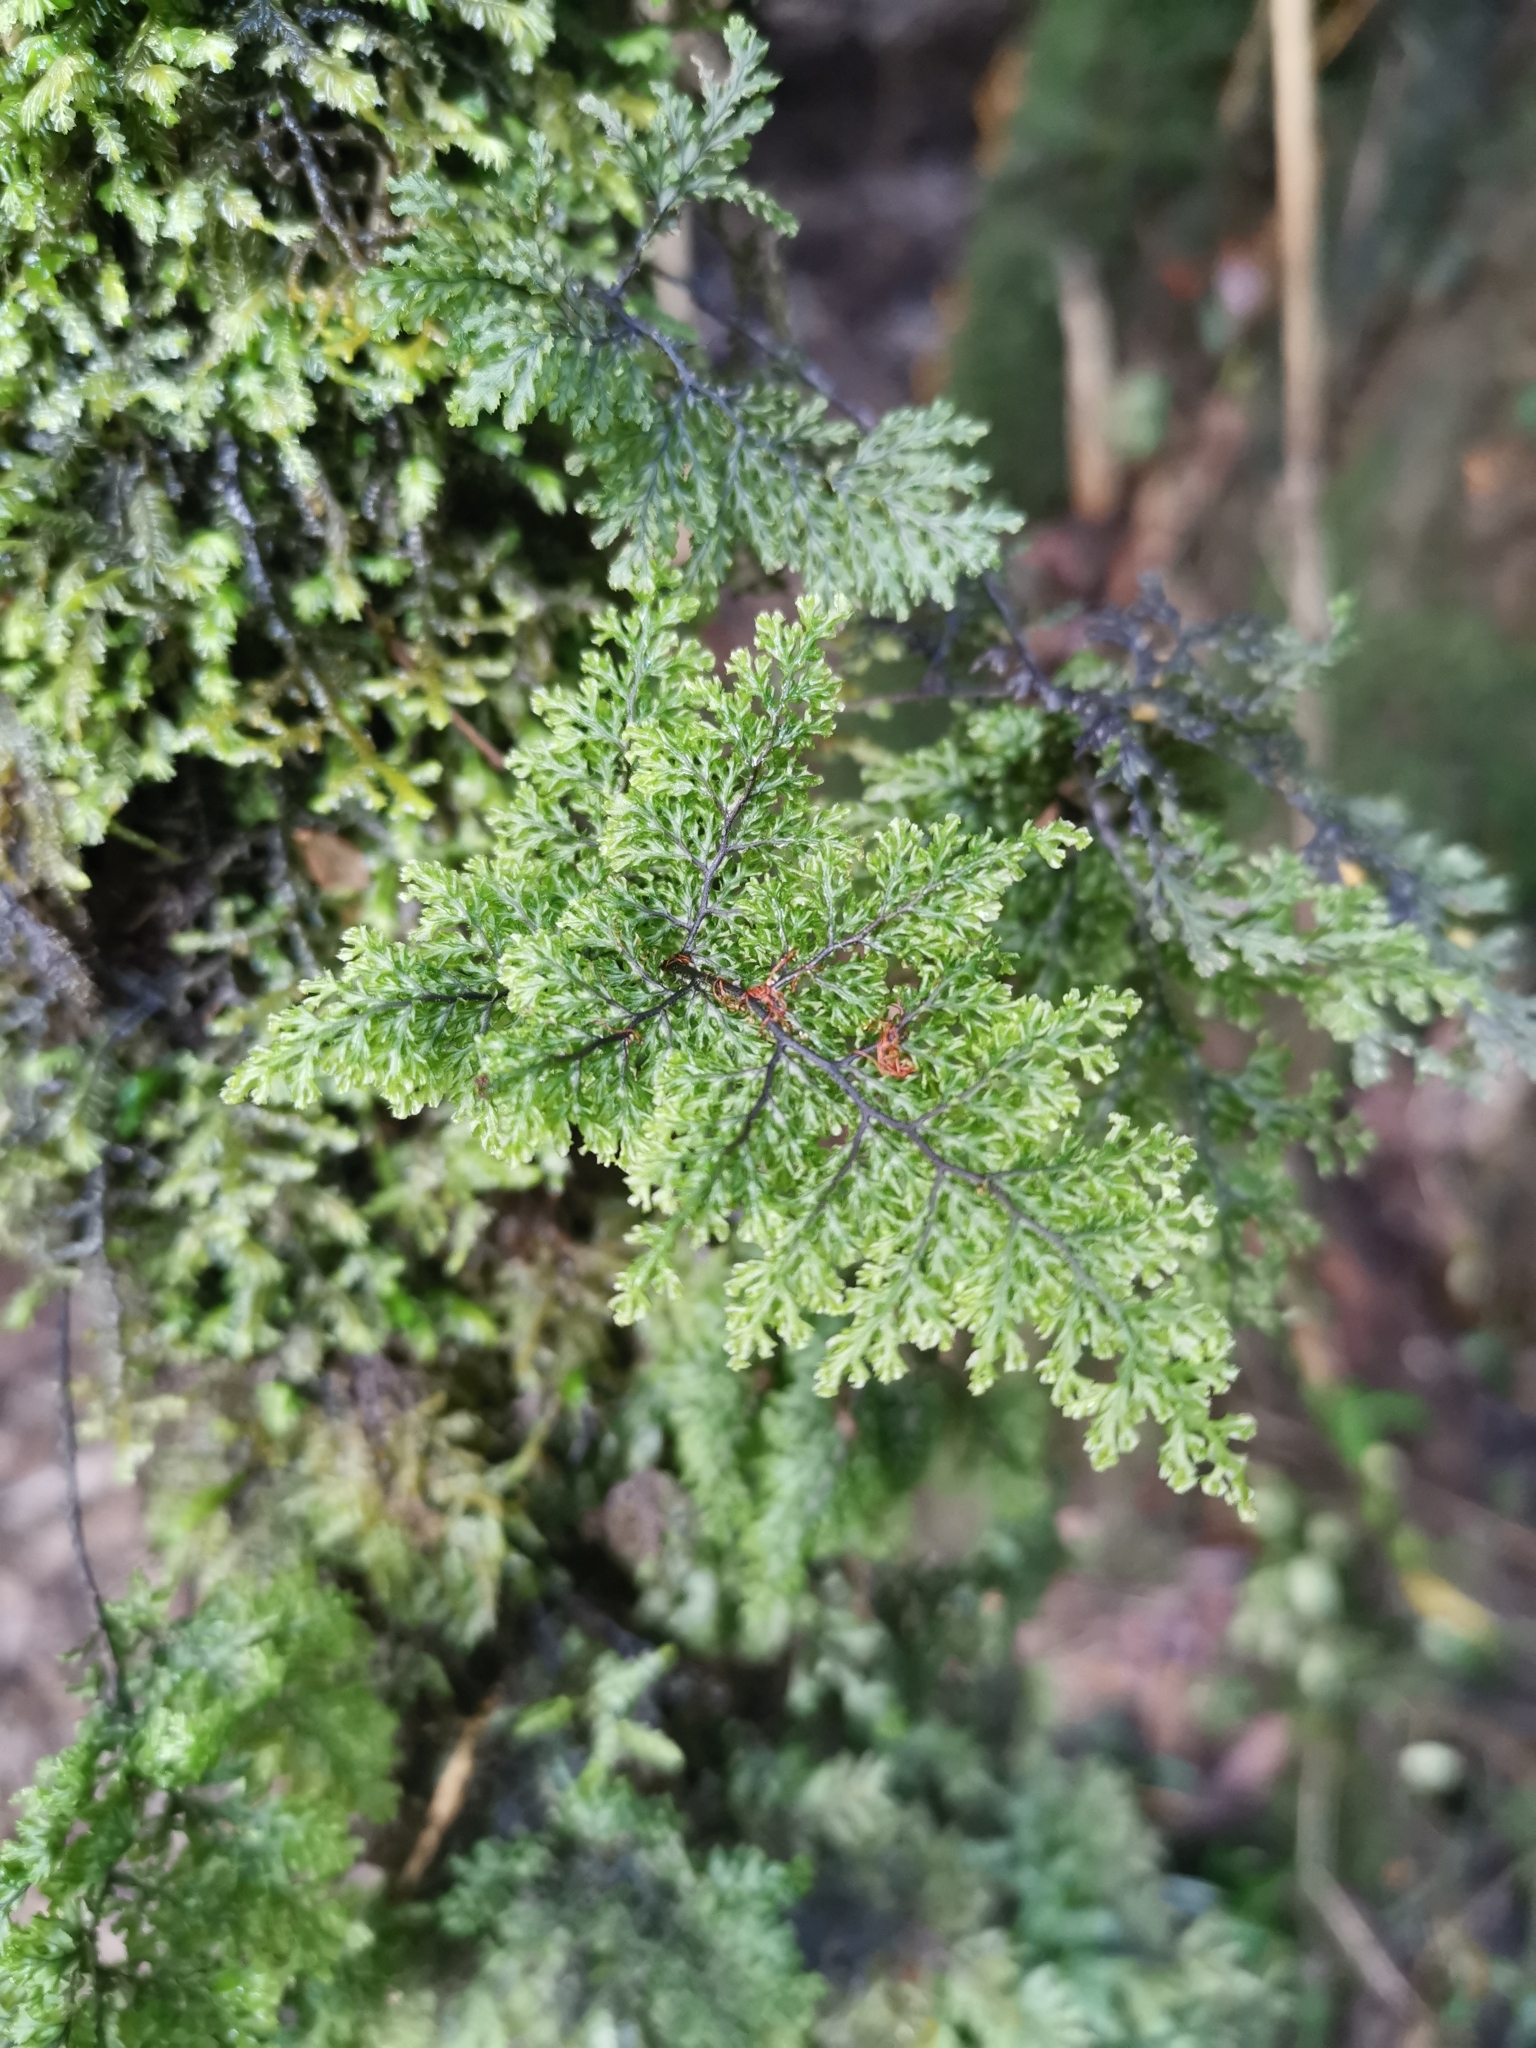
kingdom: Plantae
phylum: Tracheophyta
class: Polypodiopsida
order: Hymenophyllales
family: Hymenophyllaceae
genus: Hymenophyllum
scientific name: Hymenophyllum plicatum
